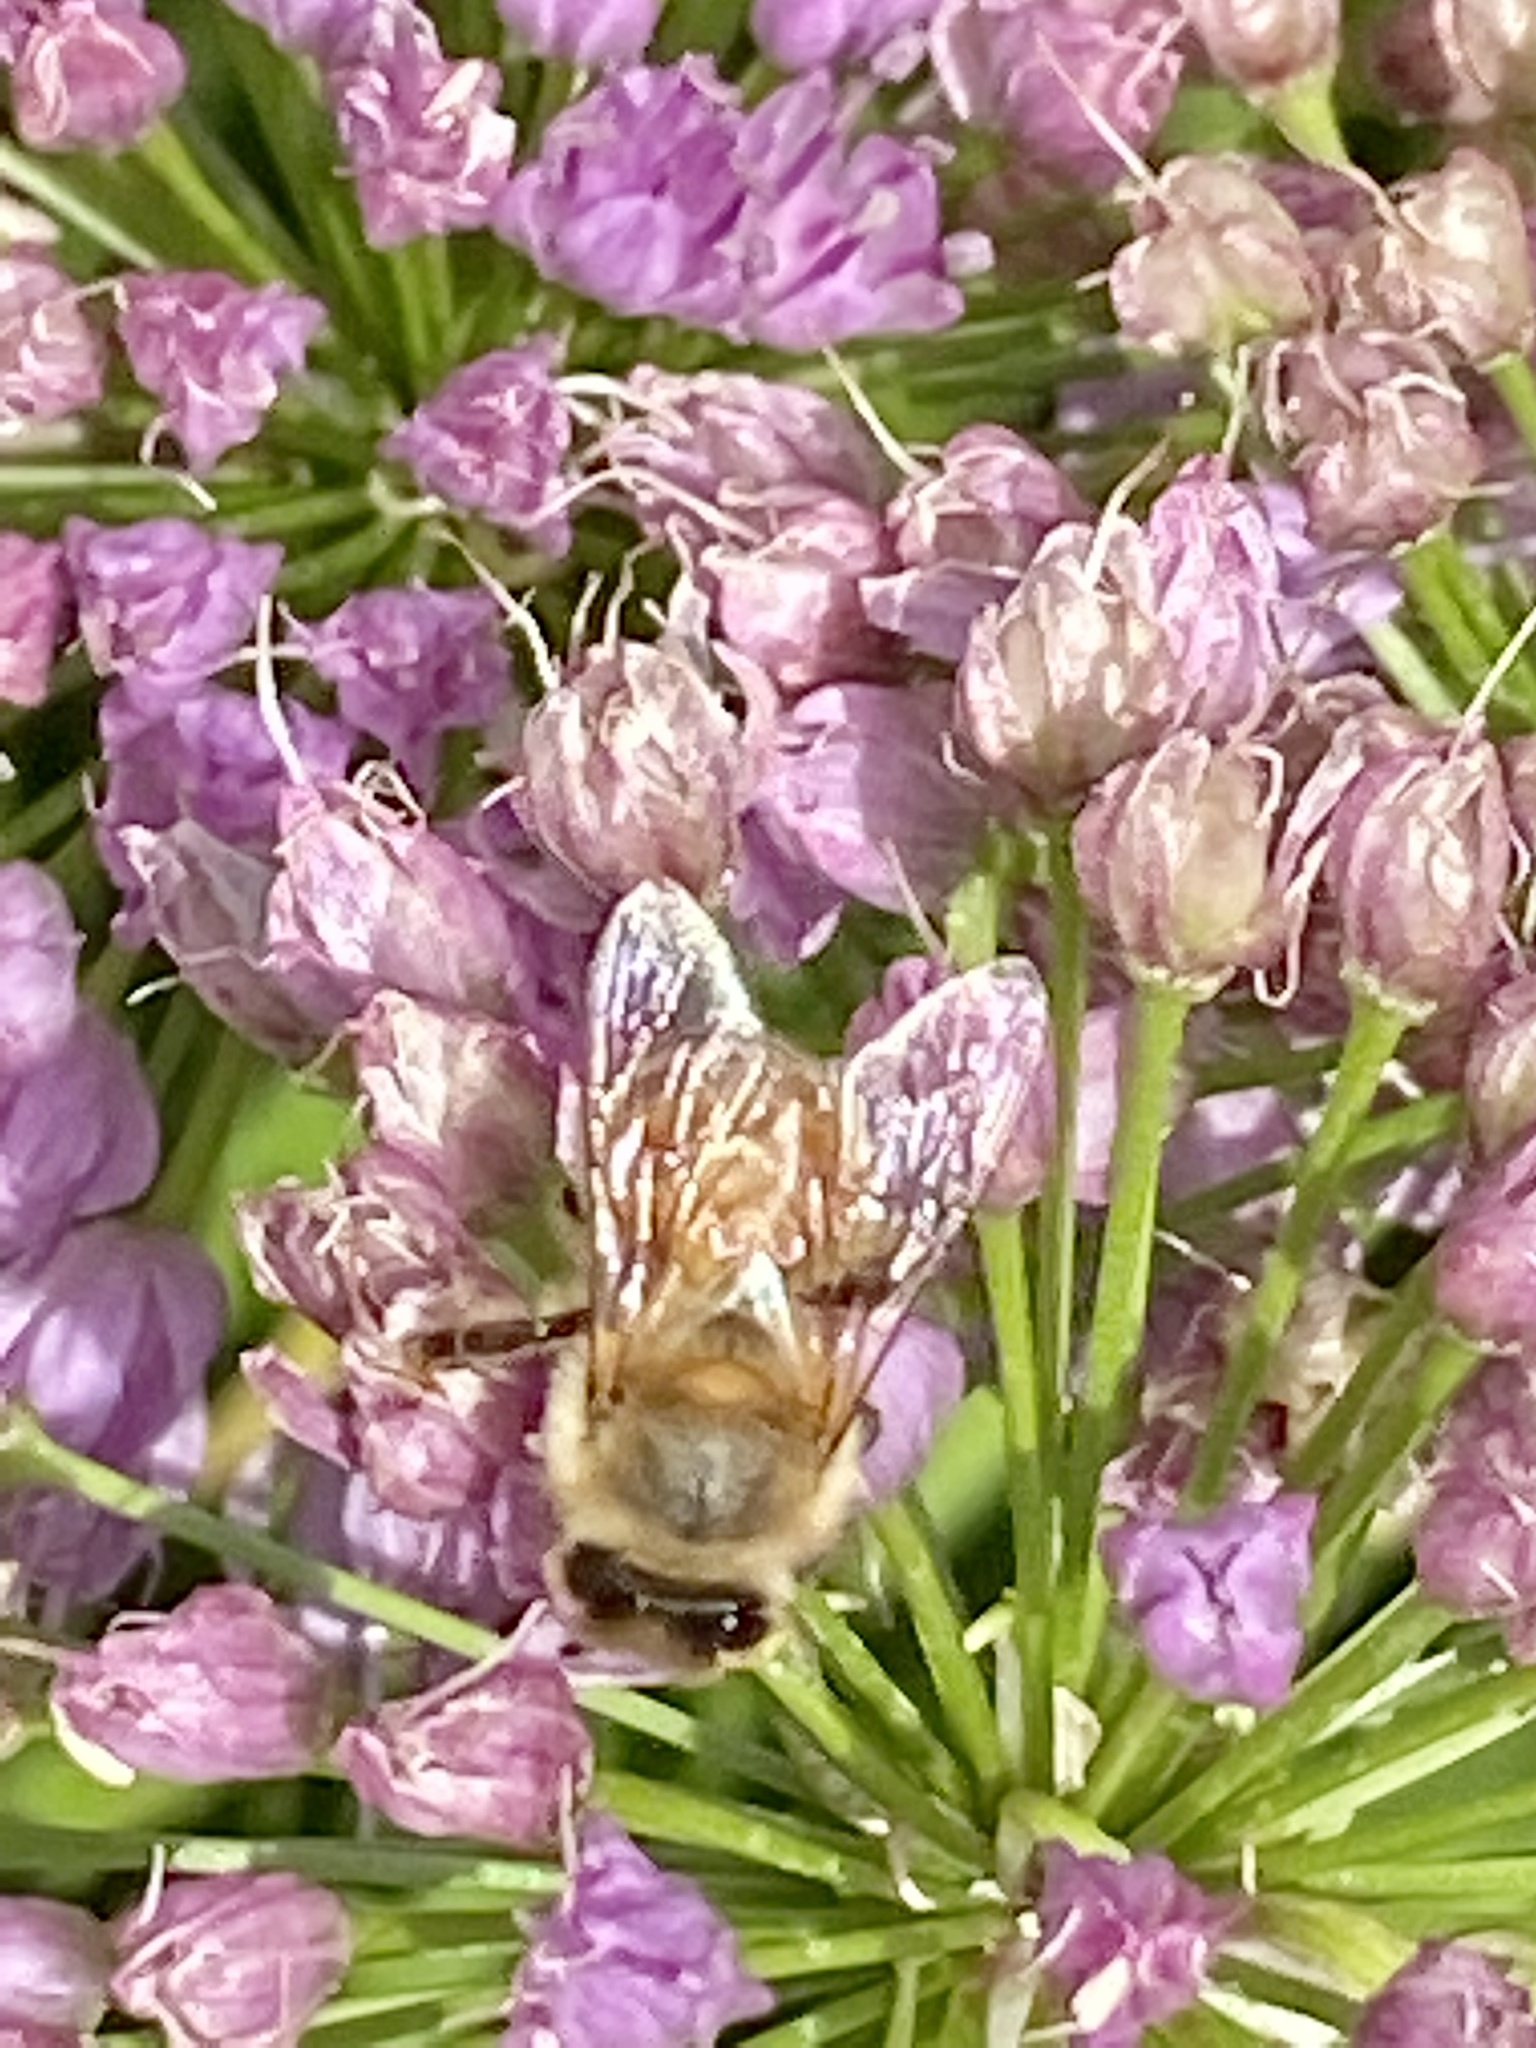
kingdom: Animalia
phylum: Arthropoda
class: Insecta
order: Hymenoptera
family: Apidae
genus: Apis
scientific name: Apis mellifera
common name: Honey bee
